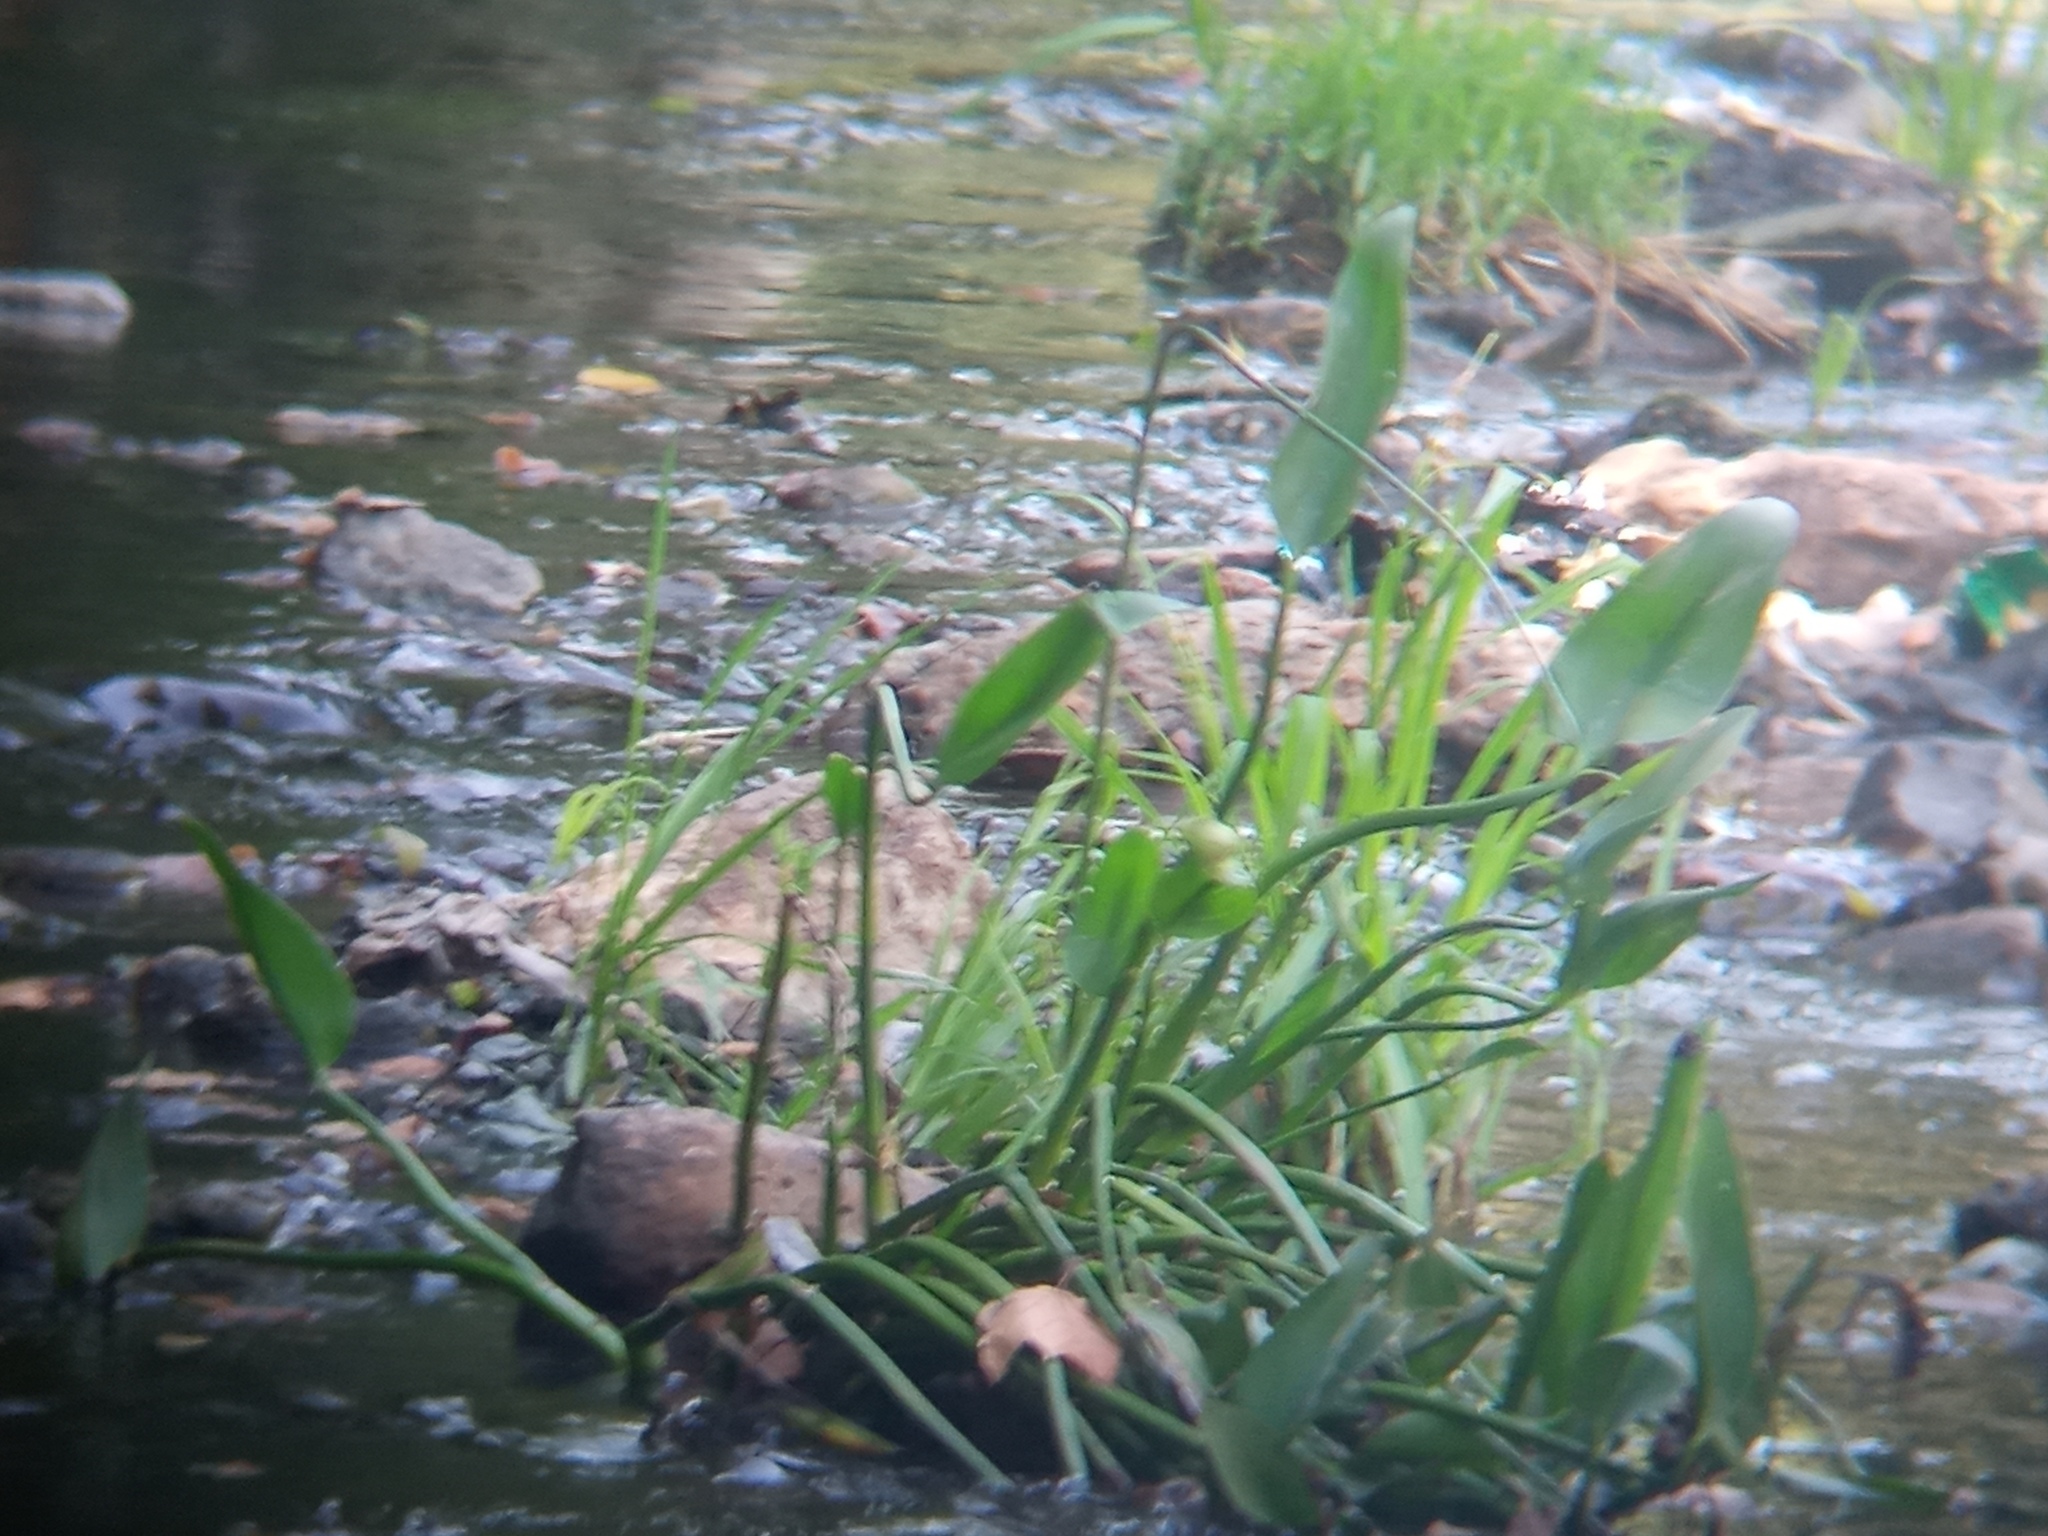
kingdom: Plantae
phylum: Tracheophyta
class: Liliopsida
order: Commelinales
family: Pontederiaceae
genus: Pontederia
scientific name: Pontederia cordata
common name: Pickerelweed
